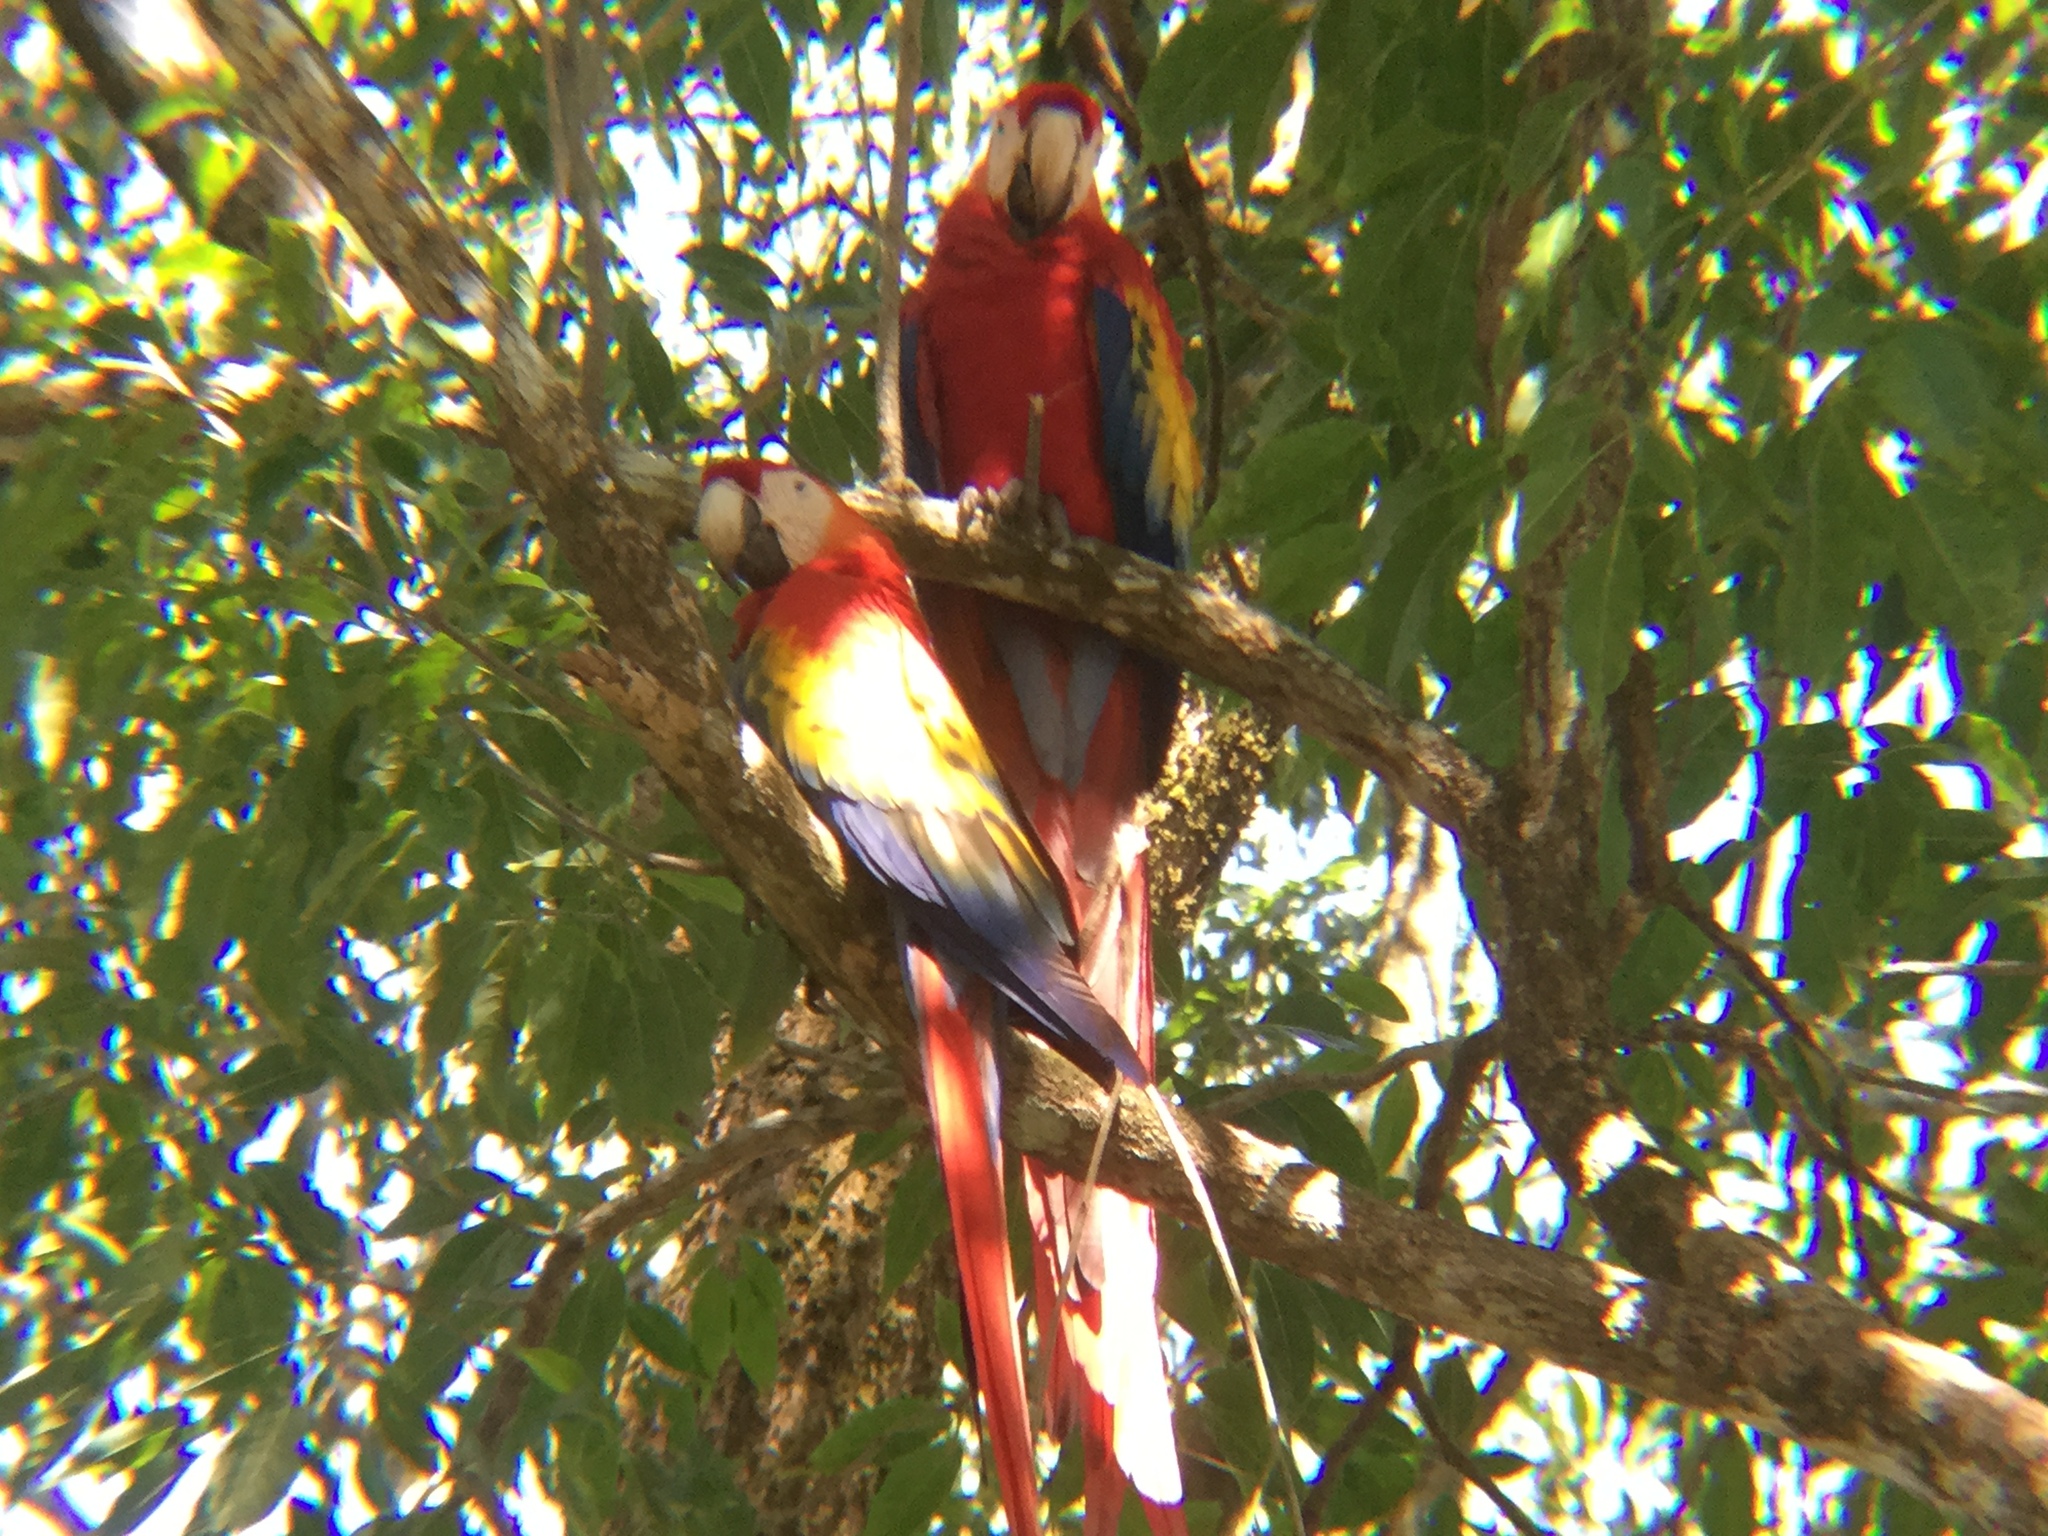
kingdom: Animalia
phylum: Chordata
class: Aves
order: Psittaciformes
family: Psittacidae
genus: Ara
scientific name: Ara macao
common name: Scarlet macaw
